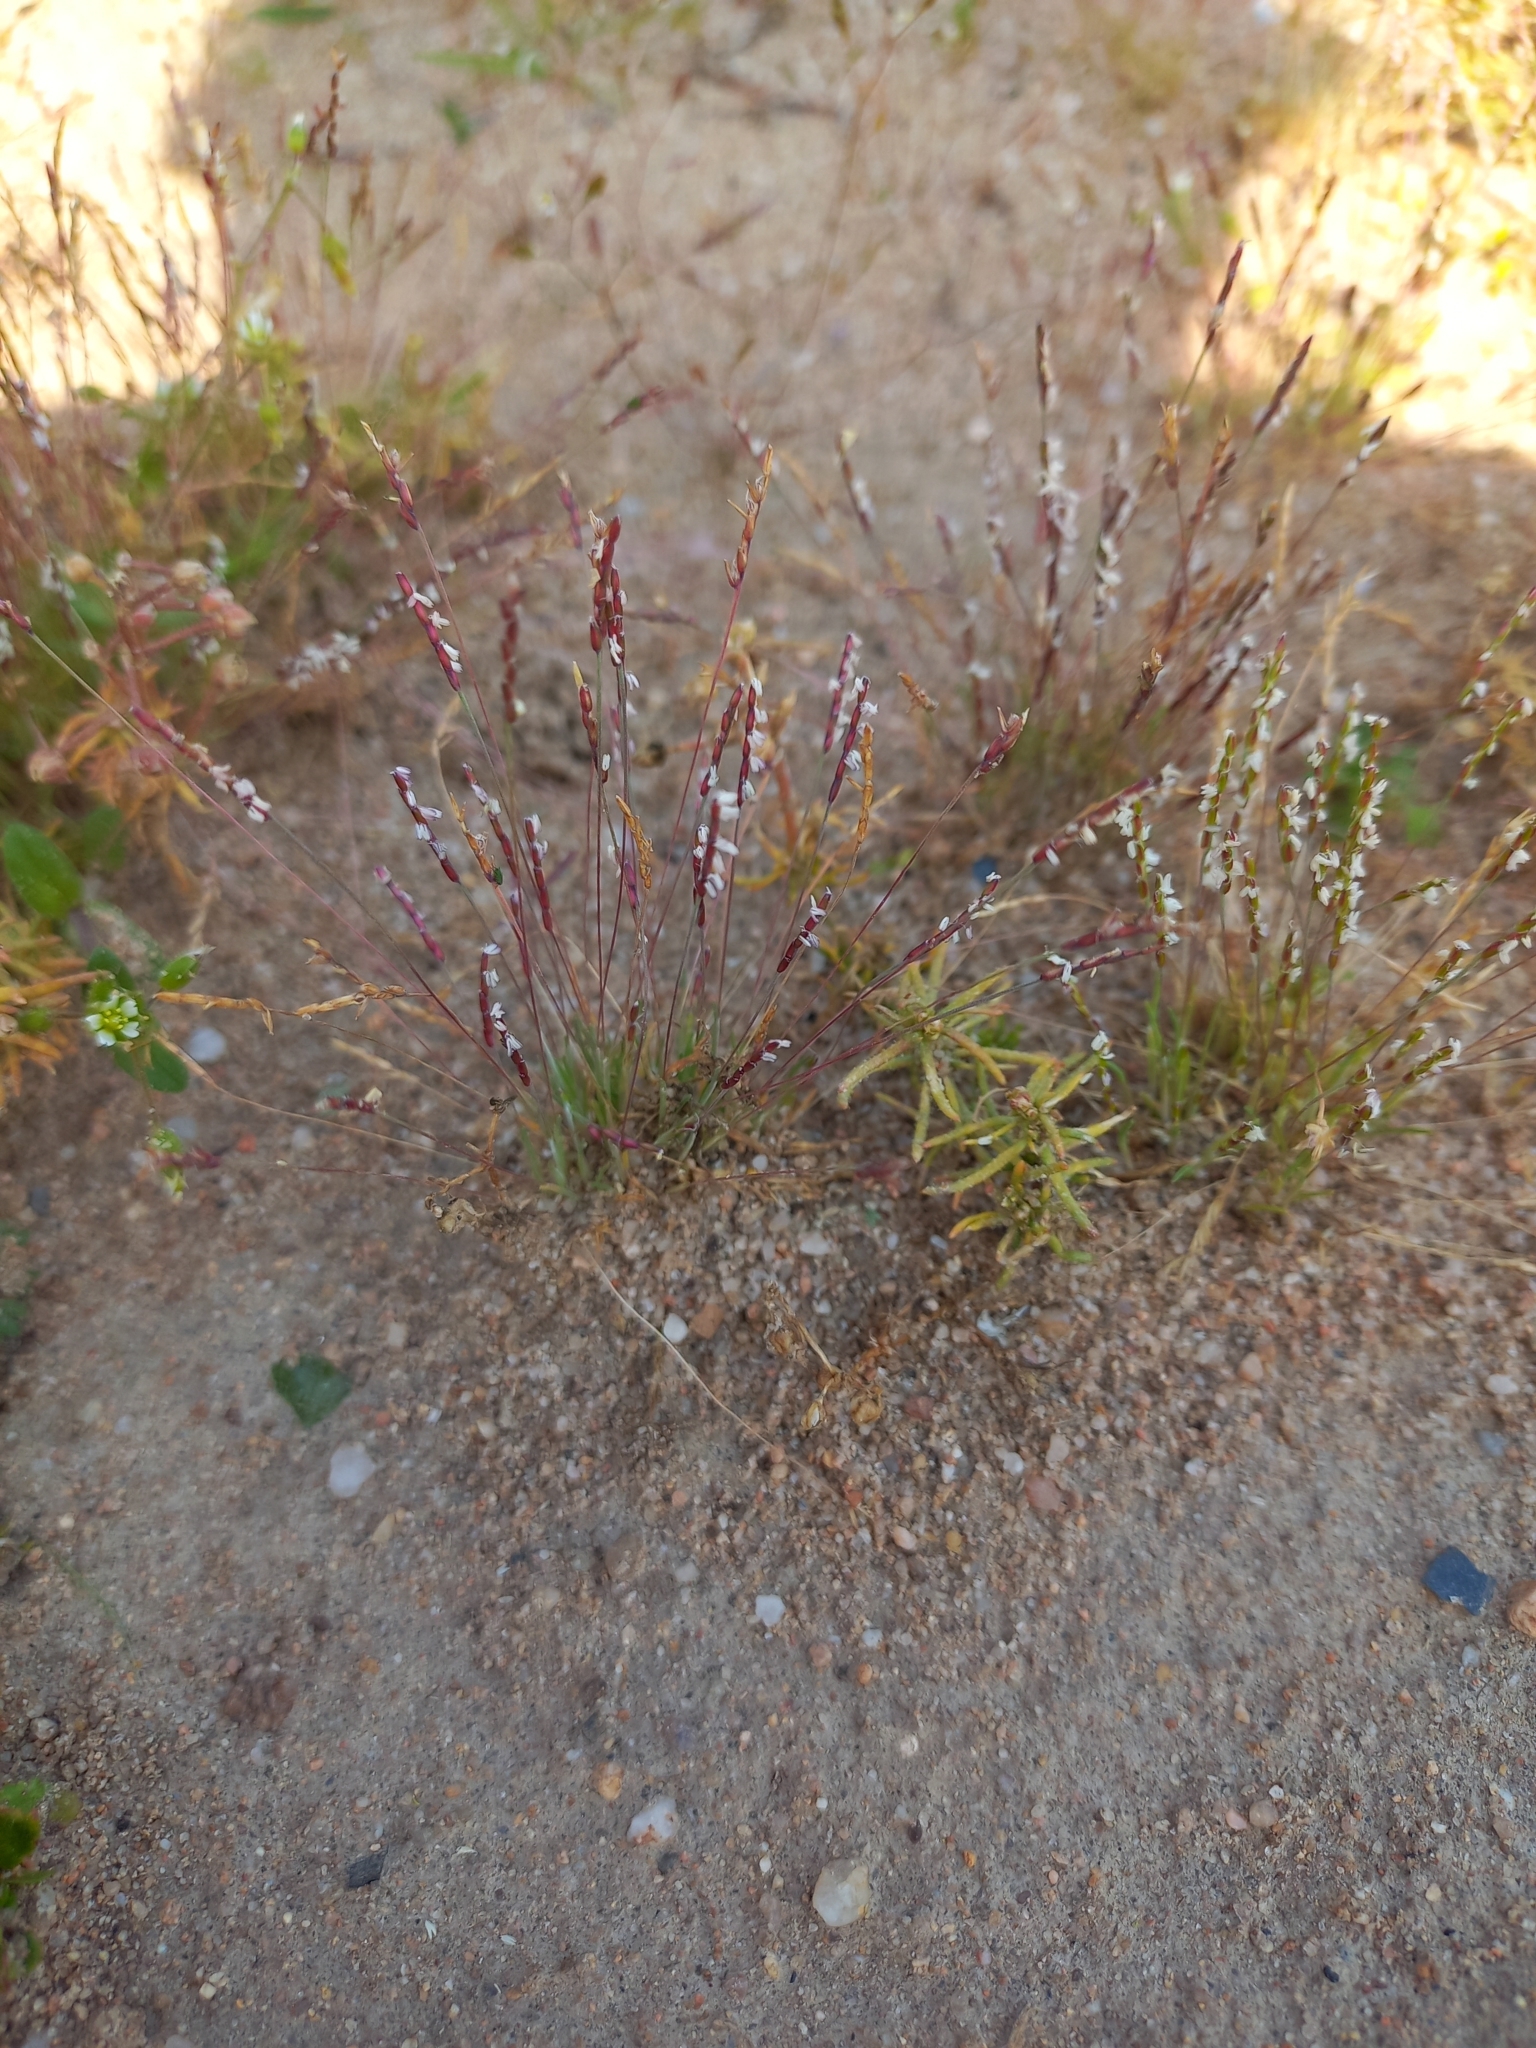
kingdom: Plantae
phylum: Tracheophyta
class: Liliopsida
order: Poales
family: Poaceae
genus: Mibora
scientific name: Mibora minima
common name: Early sand-grass
